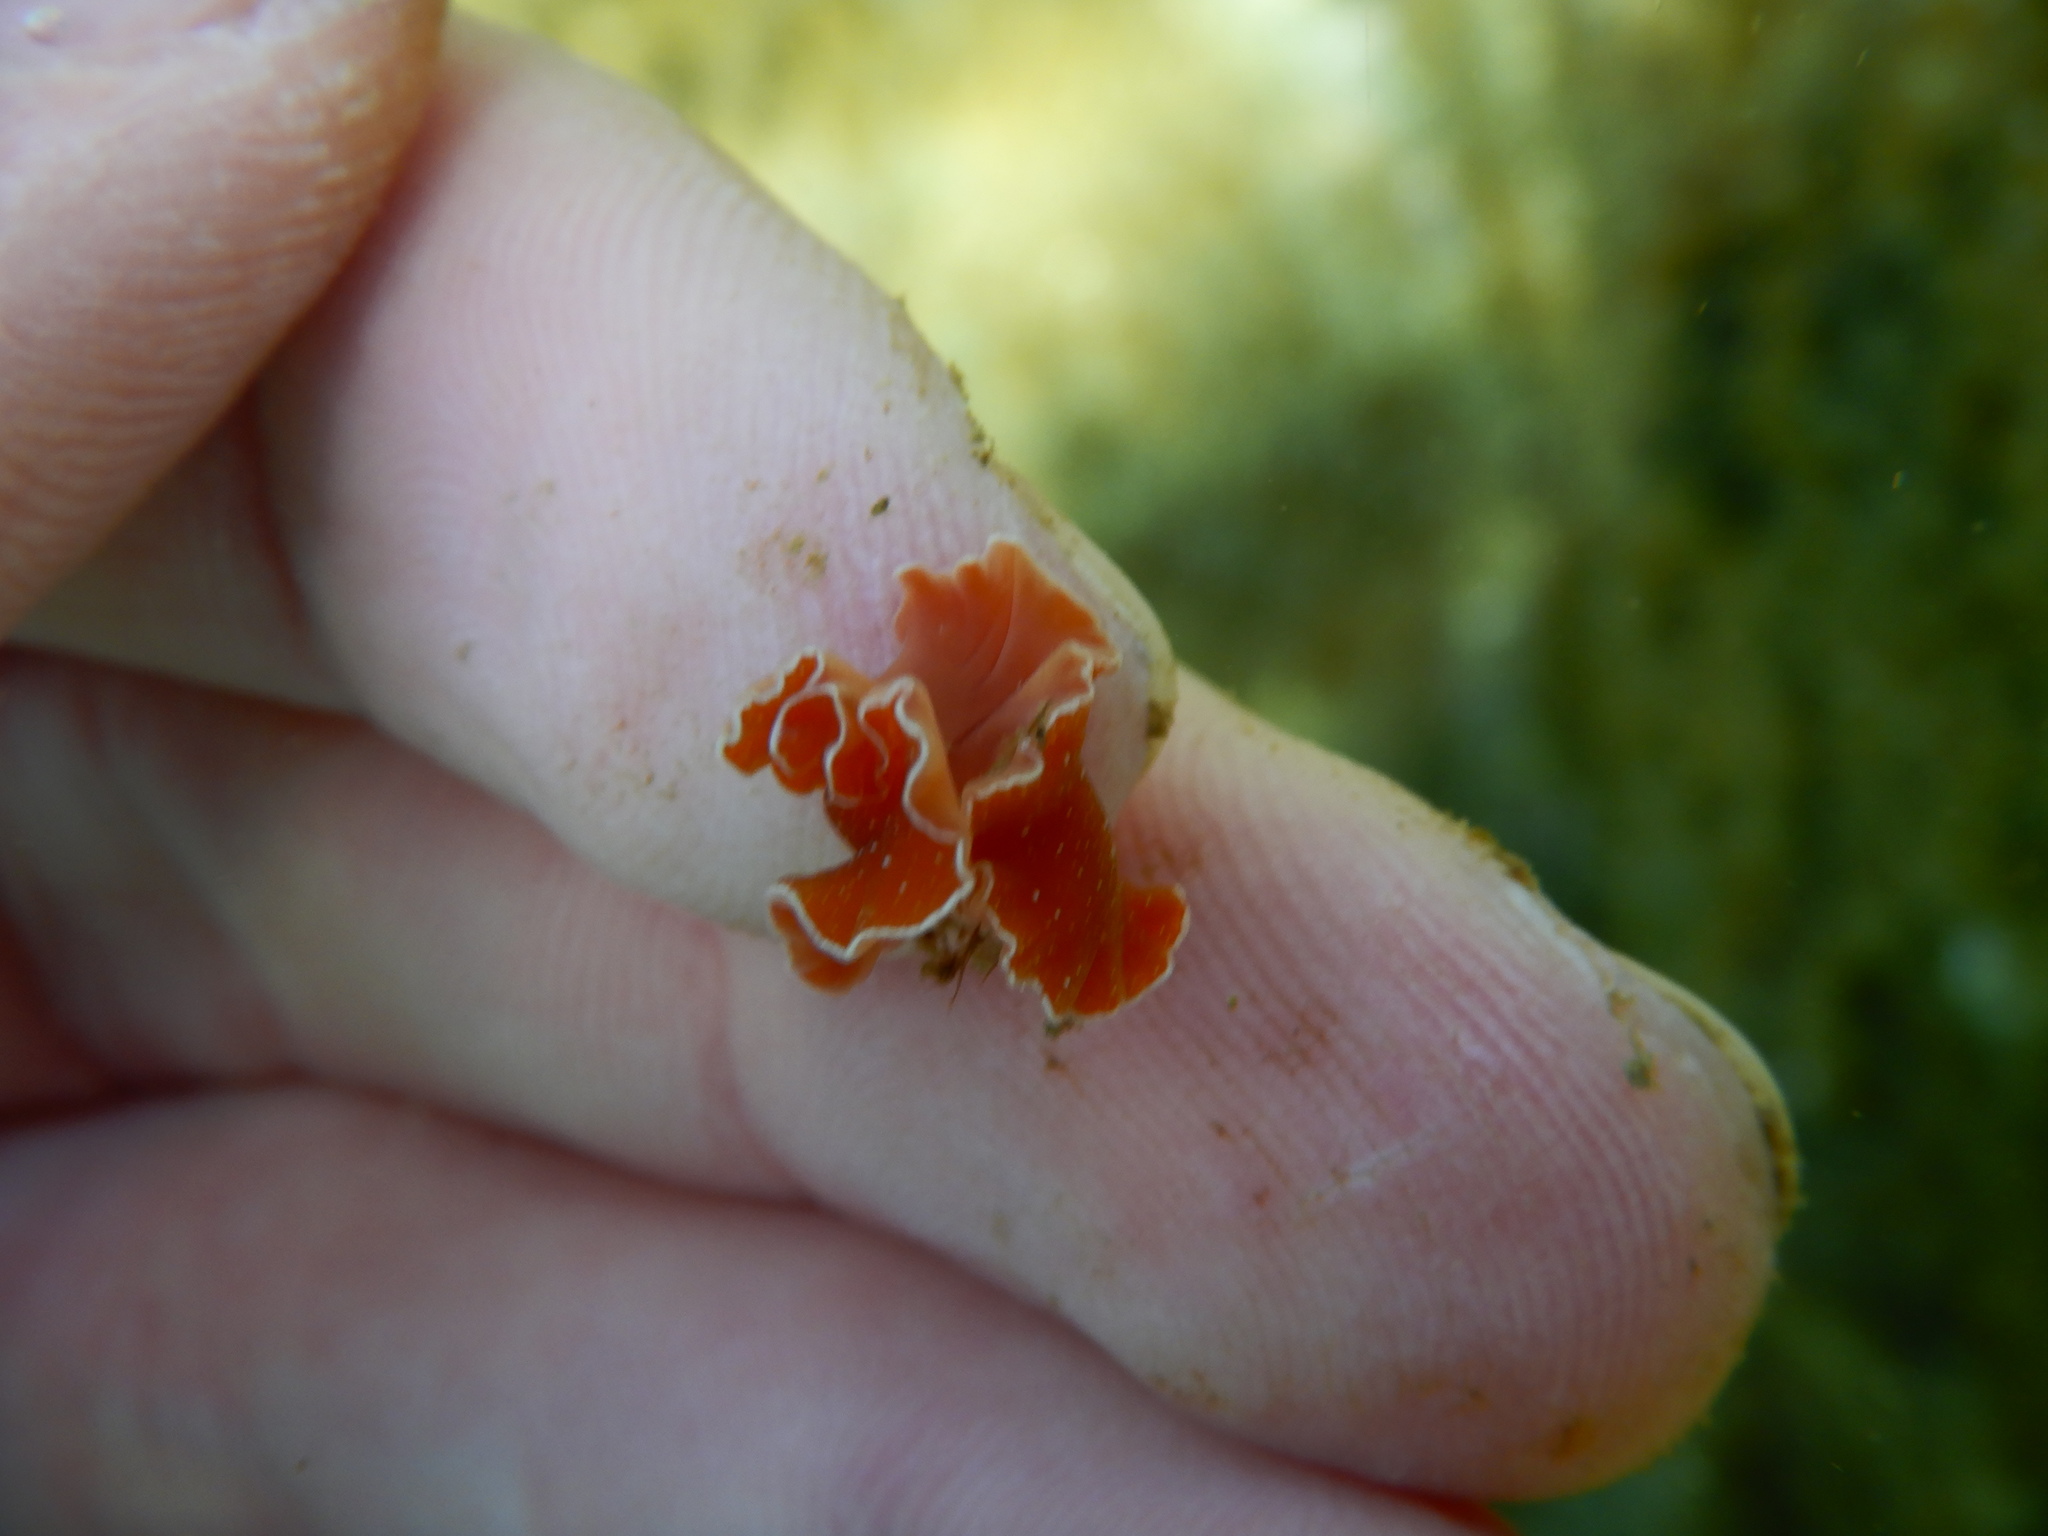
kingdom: Animalia
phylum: Platyhelminthes
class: Turbellaria
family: Pseudocerotidae
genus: Yungia
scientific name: Yungia aurantiaca
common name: Mediterranean orange polyclad worm
